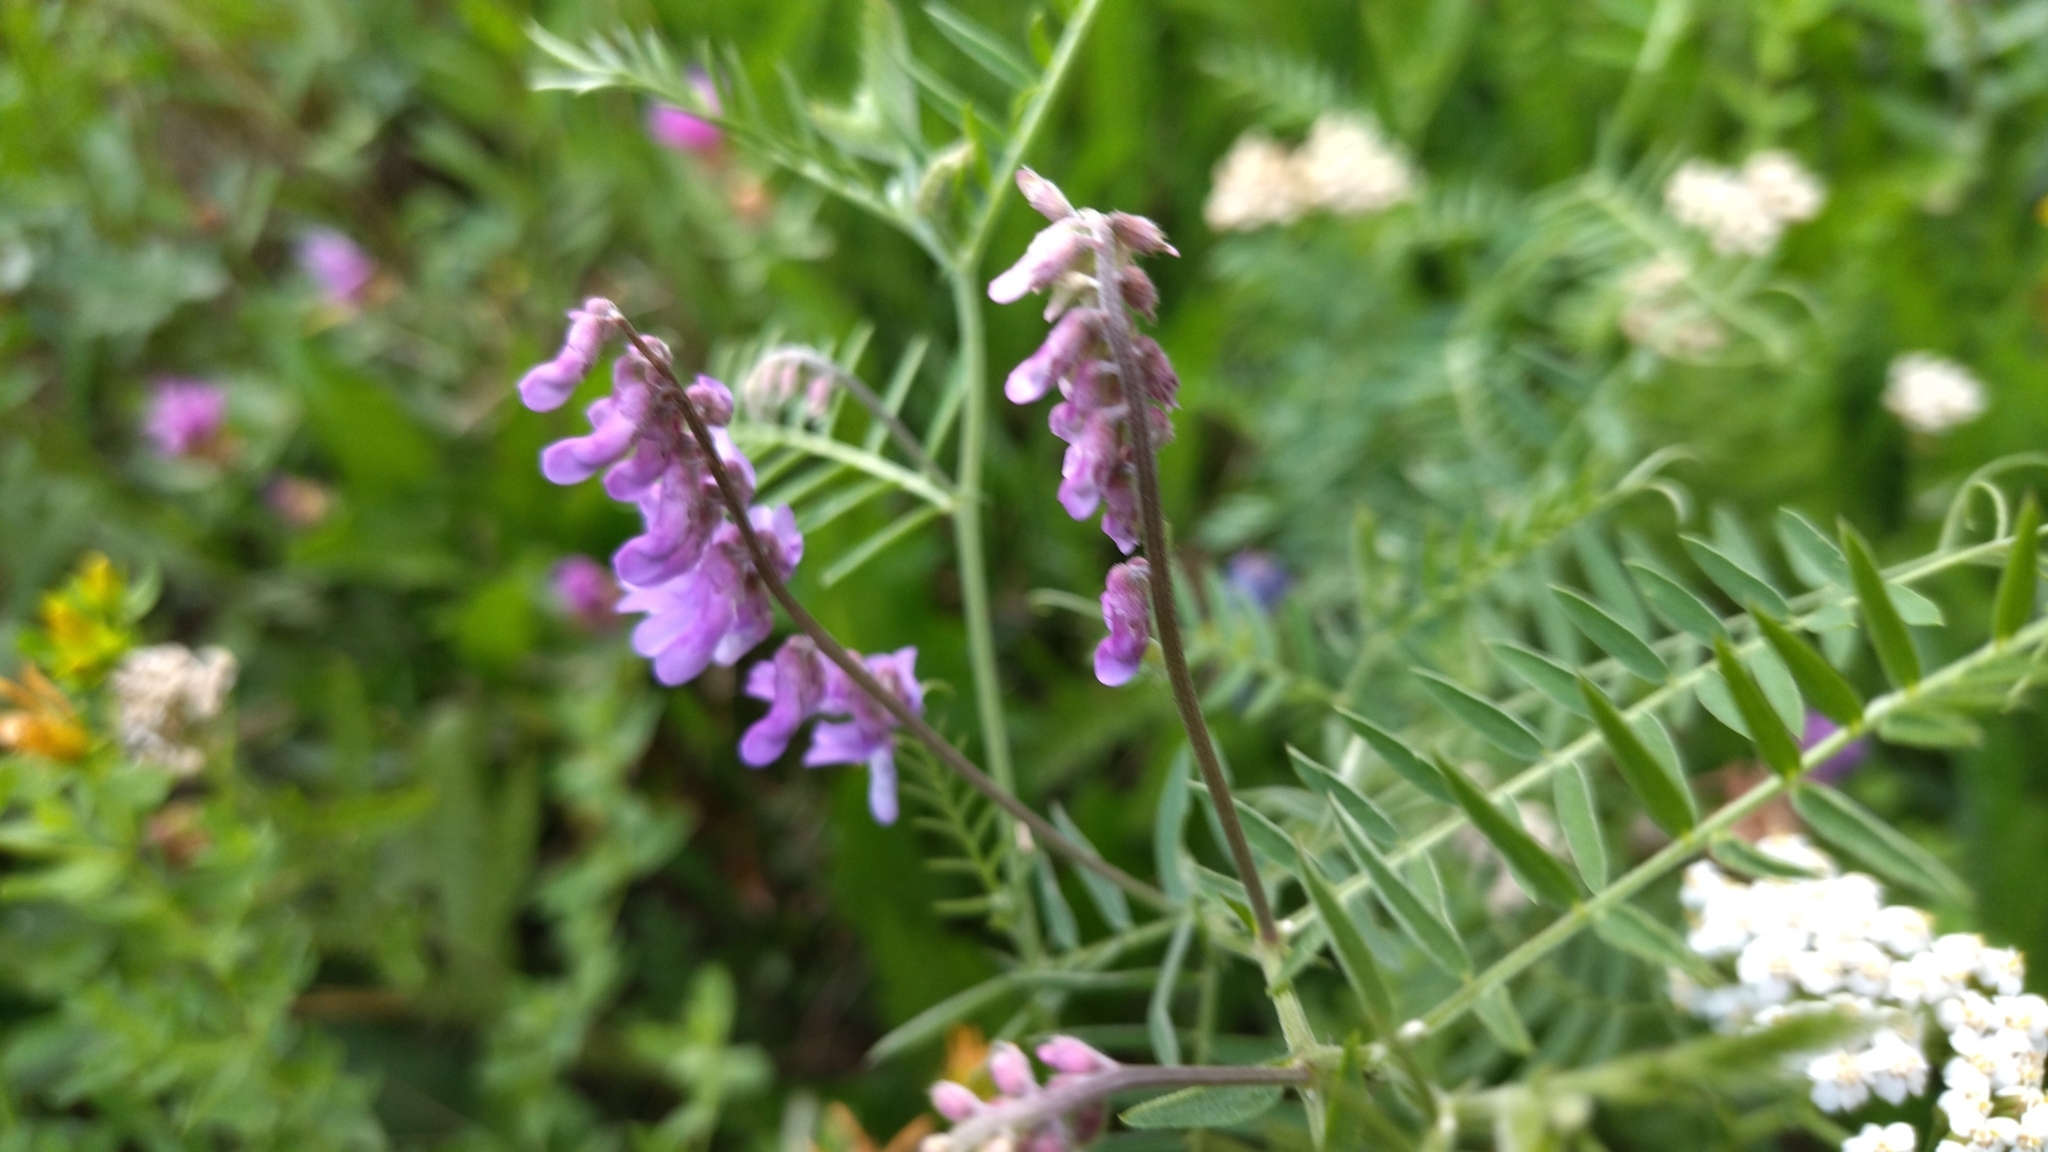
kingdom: Plantae
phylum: Tracheophyta
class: Magnoliopsida
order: Fabales
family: Fabaceae
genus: Vicia
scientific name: Vicia cracca
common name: Bird vetch
